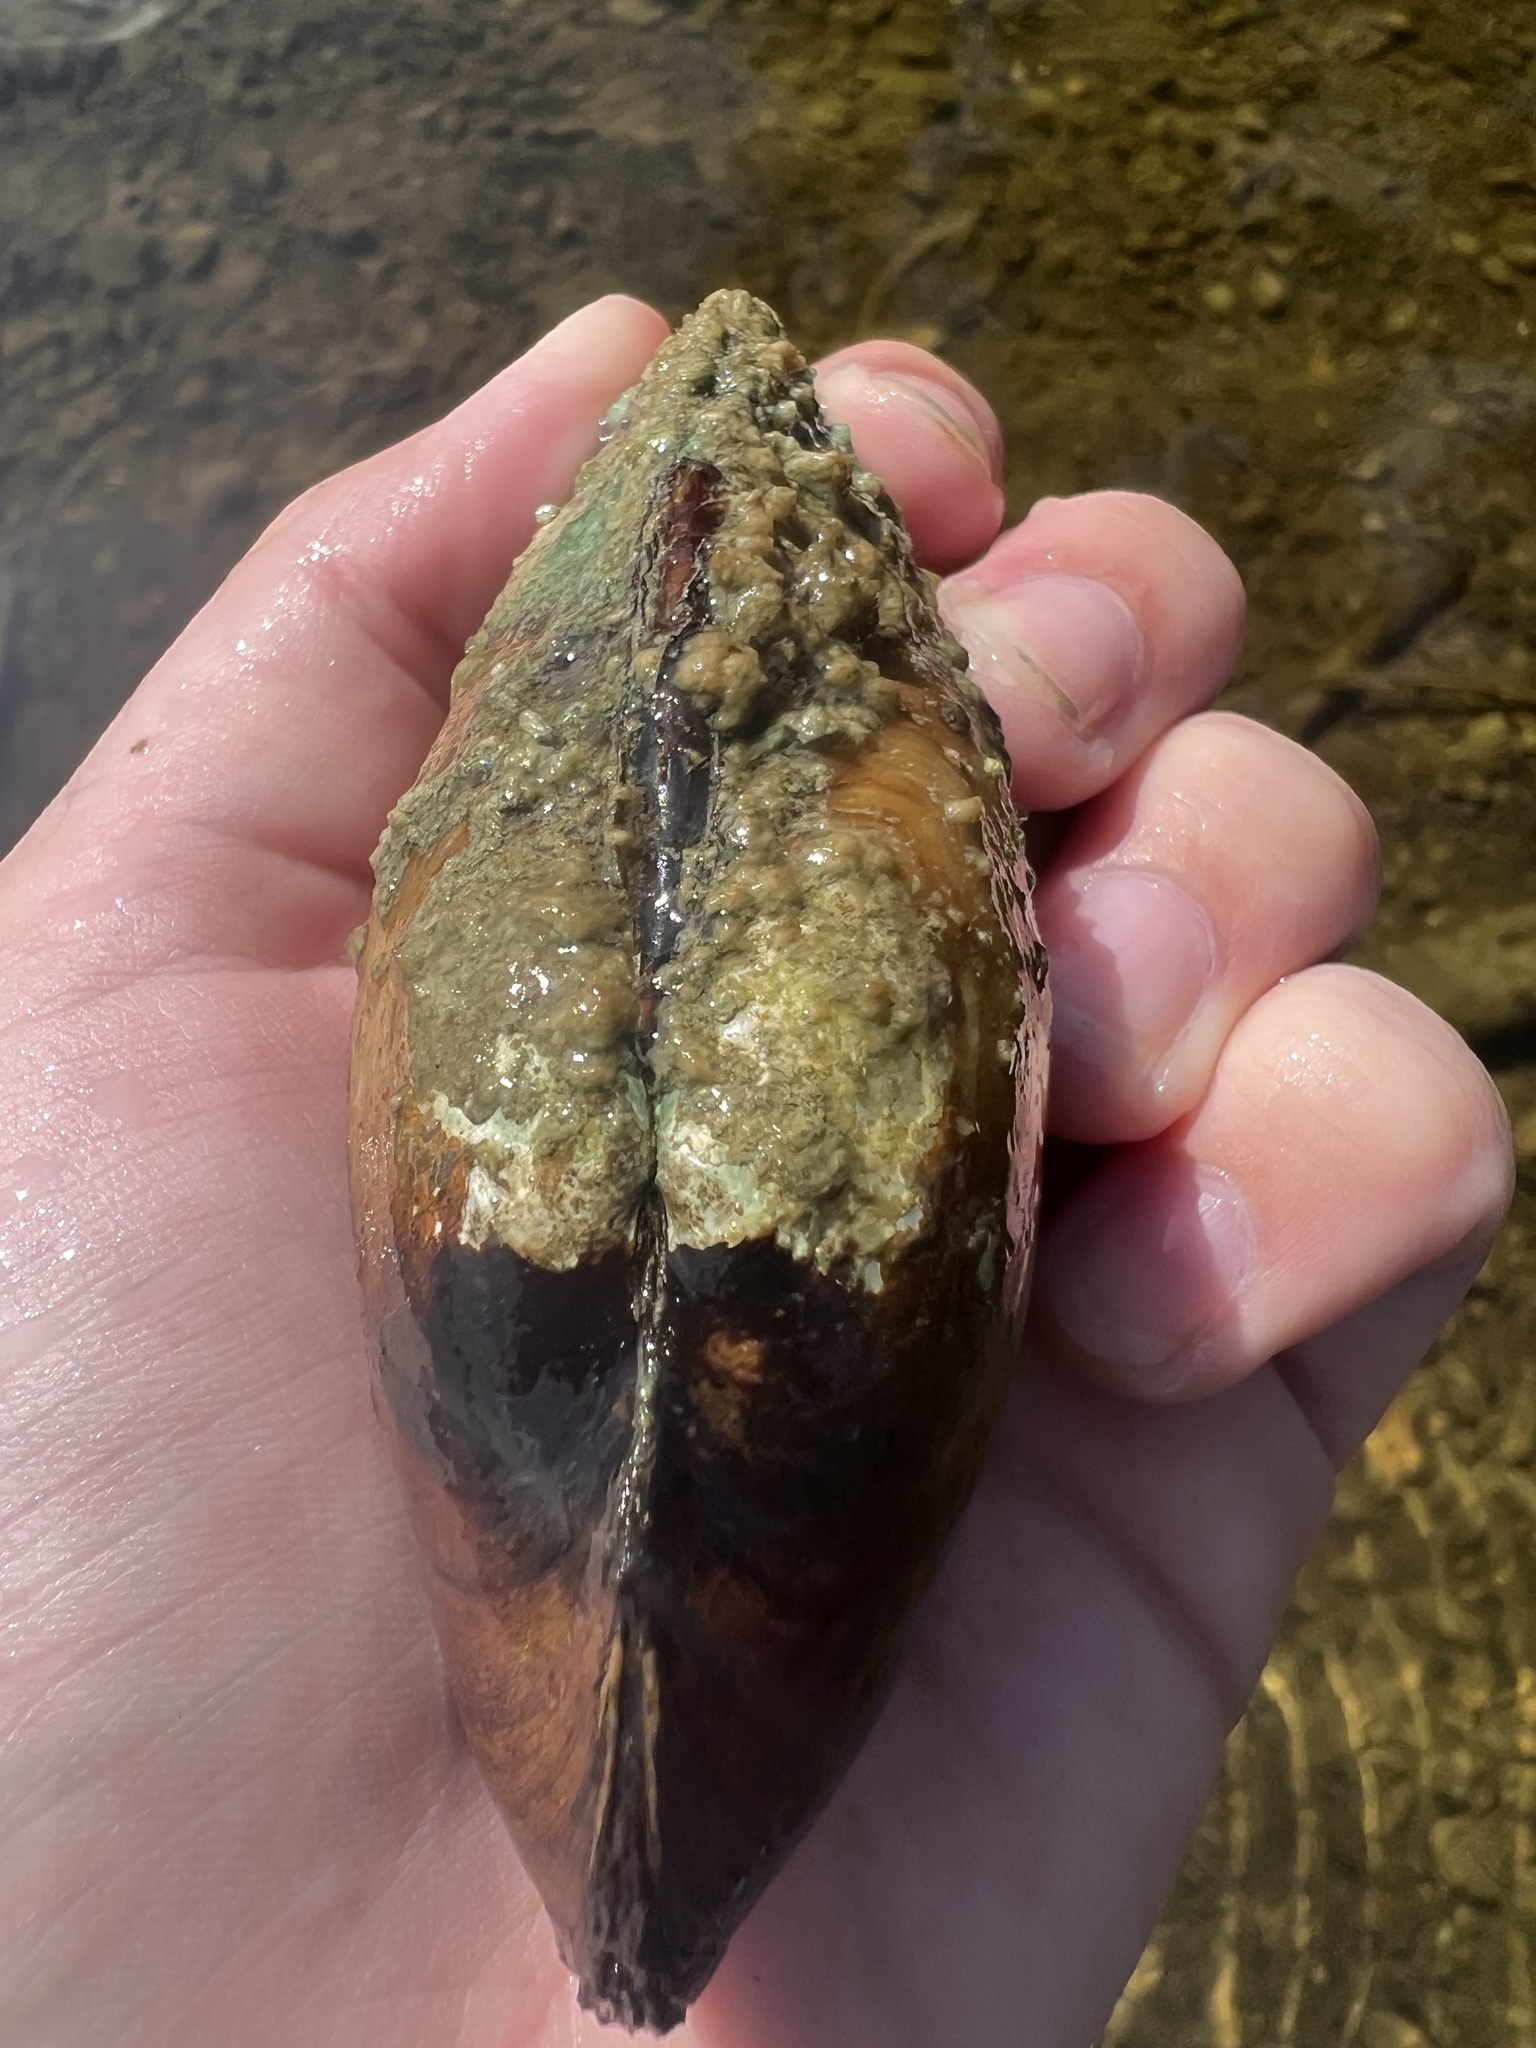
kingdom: Animalia
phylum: Mollusca
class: Bivalvia
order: Unionida
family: Unionidae
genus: Lampsilis
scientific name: Lampsilis siliquoidea
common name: Fatmucket
